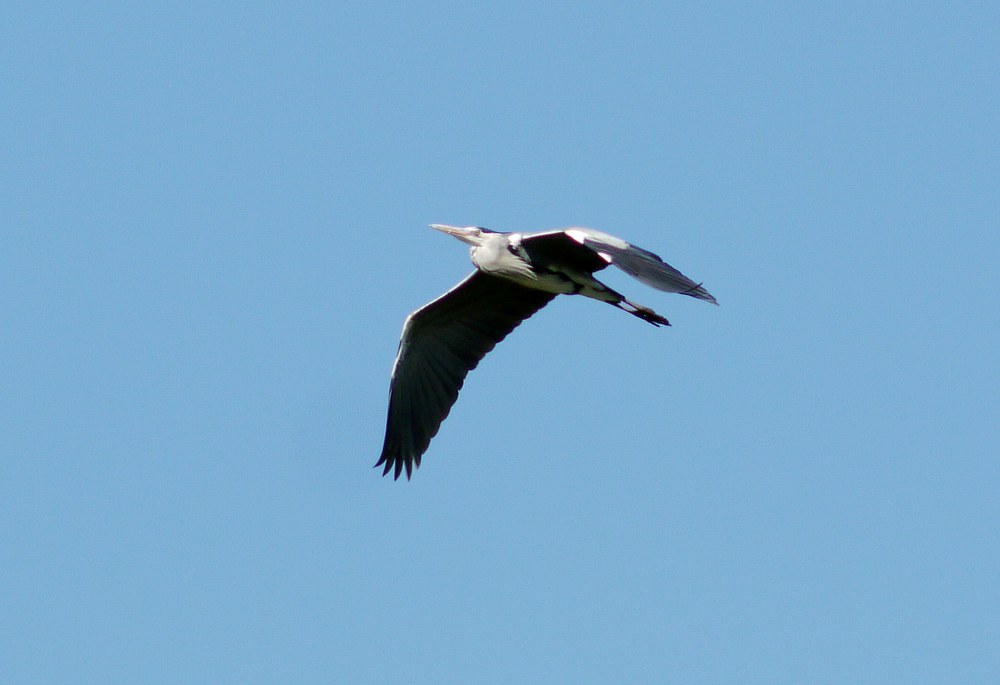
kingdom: Animalia
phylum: Chordata
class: Aves
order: Pelecaniformes
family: Ardeidae
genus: Ardea
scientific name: Ardea cinerea
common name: Grey heron
